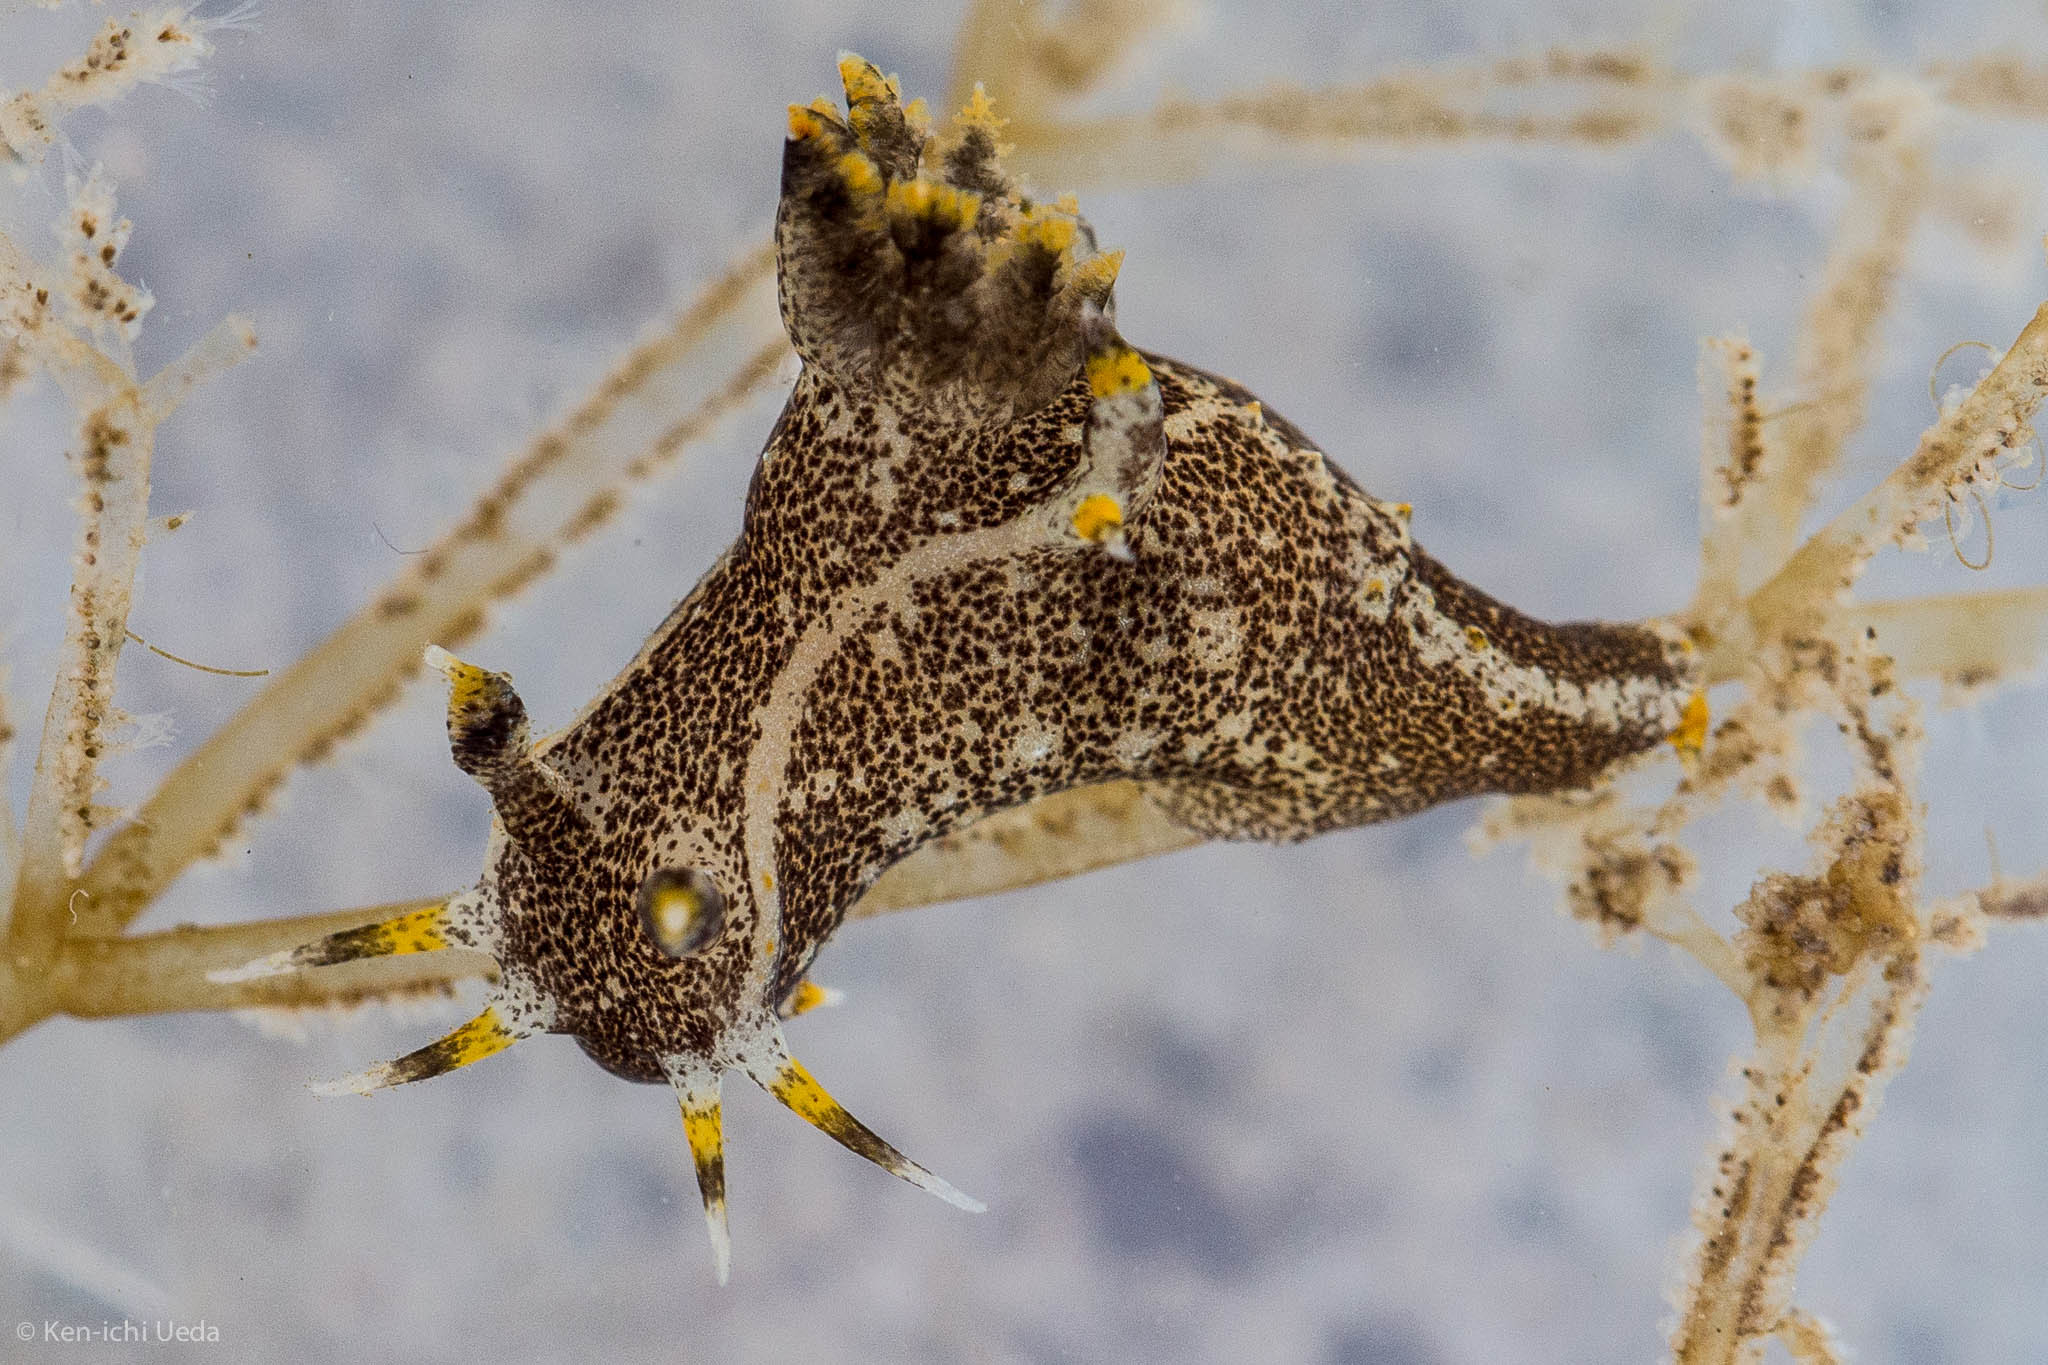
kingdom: Animalia
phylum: Mollusca
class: Gastropoda
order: Nudibranchia
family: Polyceridae
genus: Polycera
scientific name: Polycera hedgpethi
